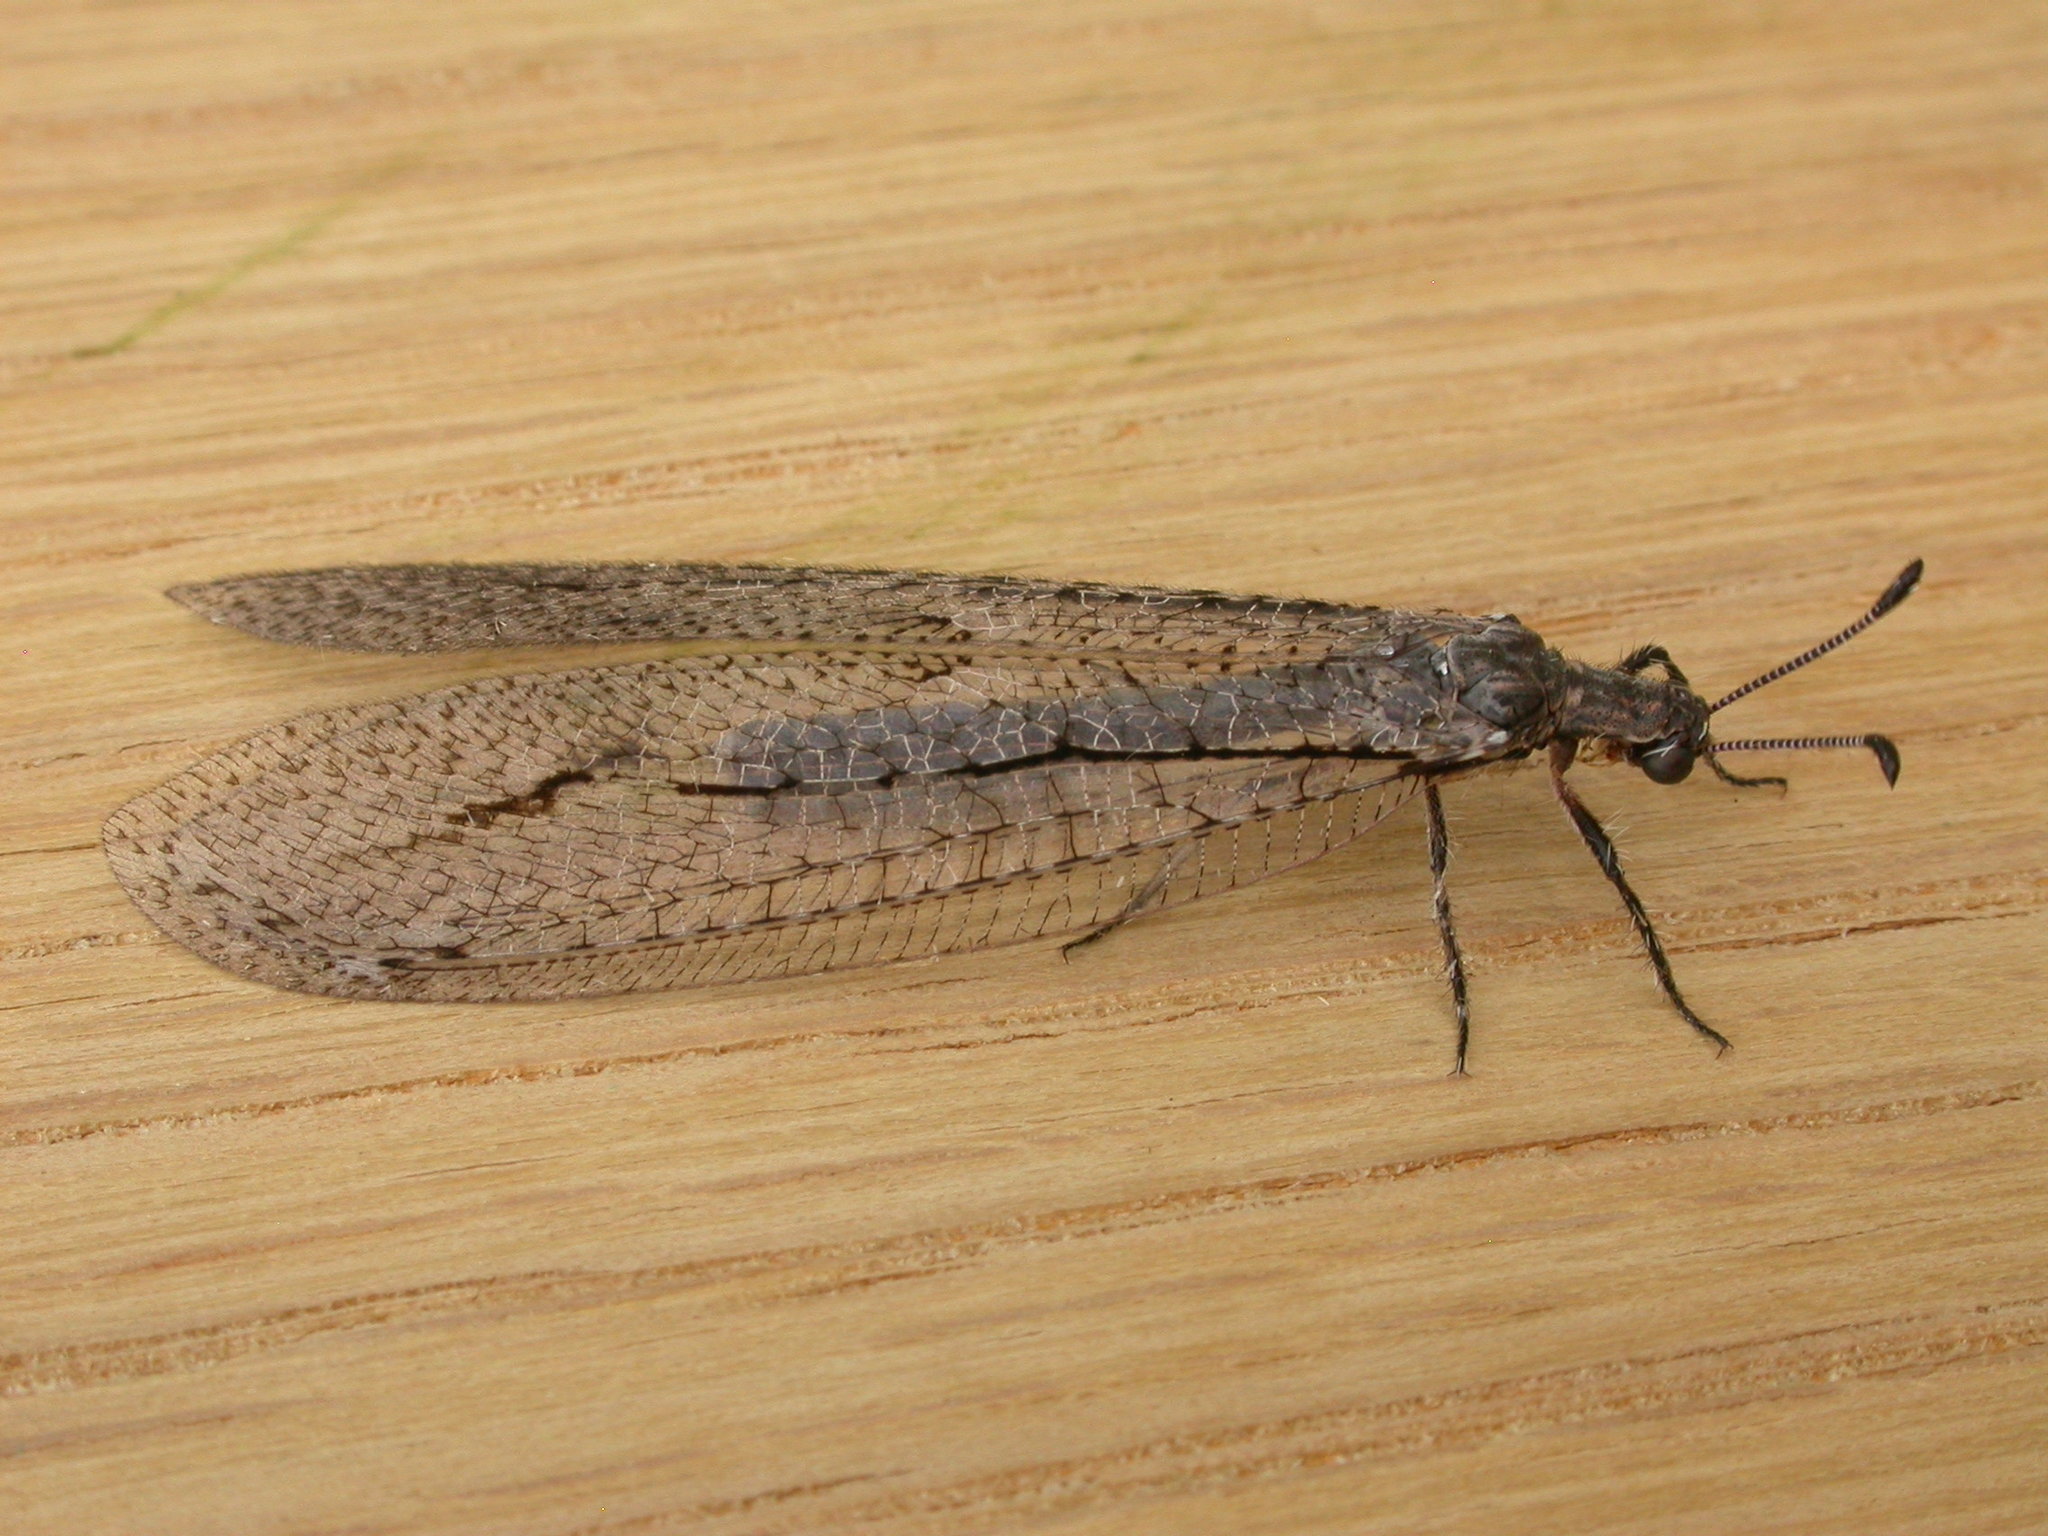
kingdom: Animalia
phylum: Arthropoda
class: Insecta
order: Neuroptera
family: Myrmeleontidae
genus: Glenoleon
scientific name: Glenoleon rudda
